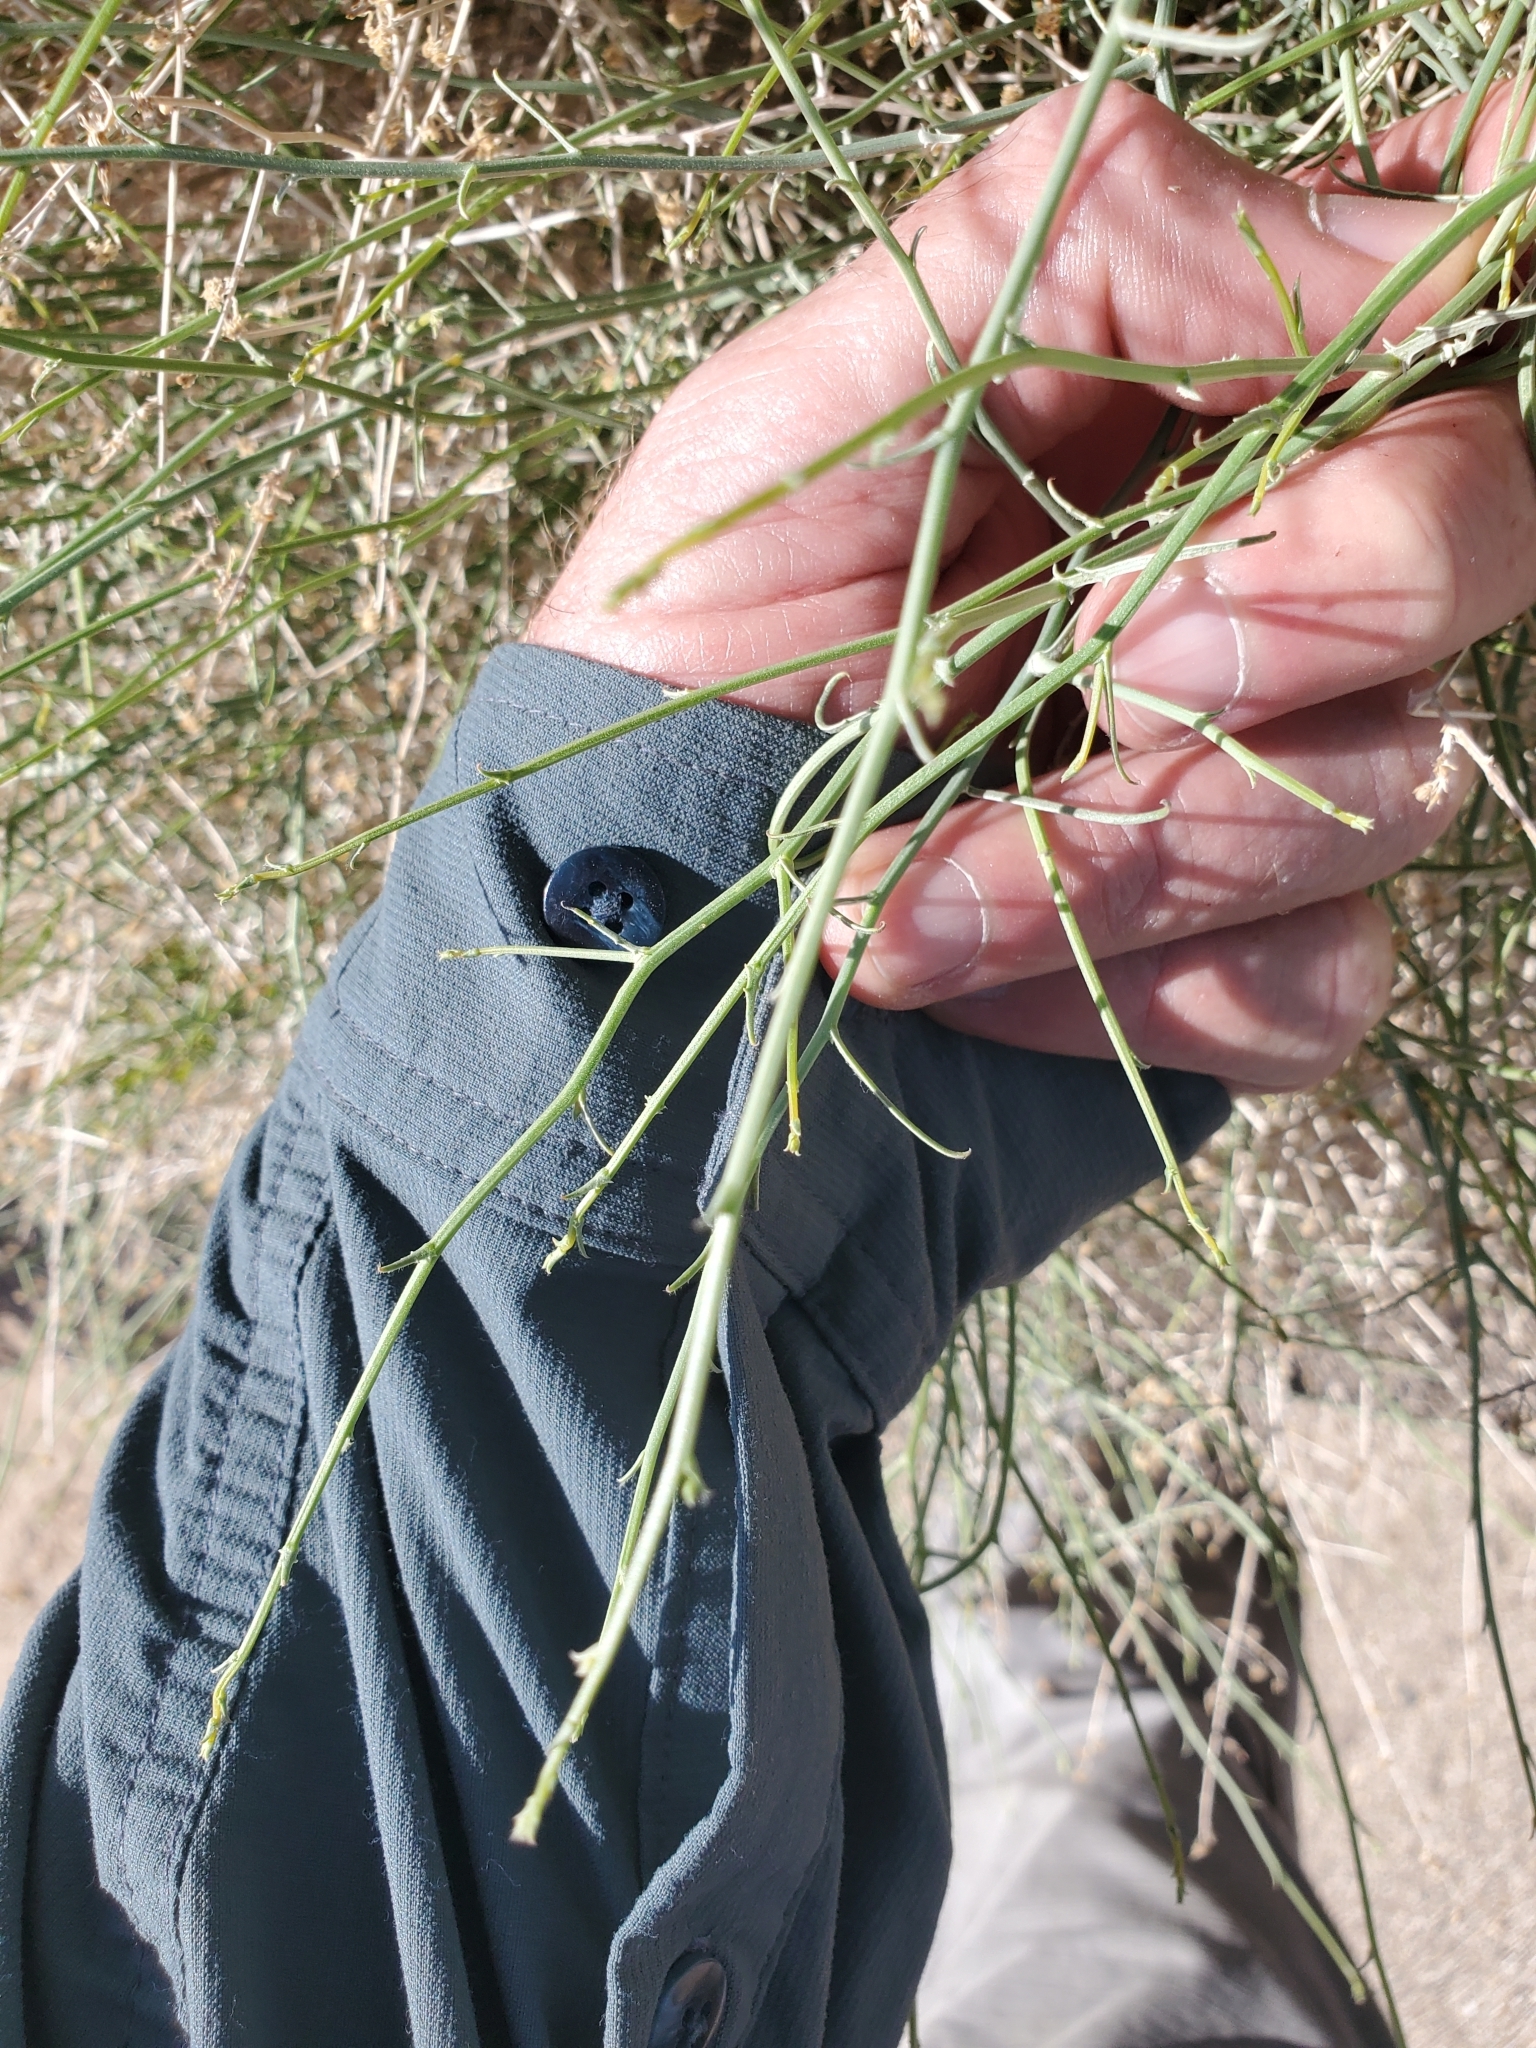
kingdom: Plantae
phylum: Tracheophyta
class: Magnoliopsida
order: Asterales
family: Asteraceae
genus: Stephanomeria
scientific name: Stephanomeria pauciflora
